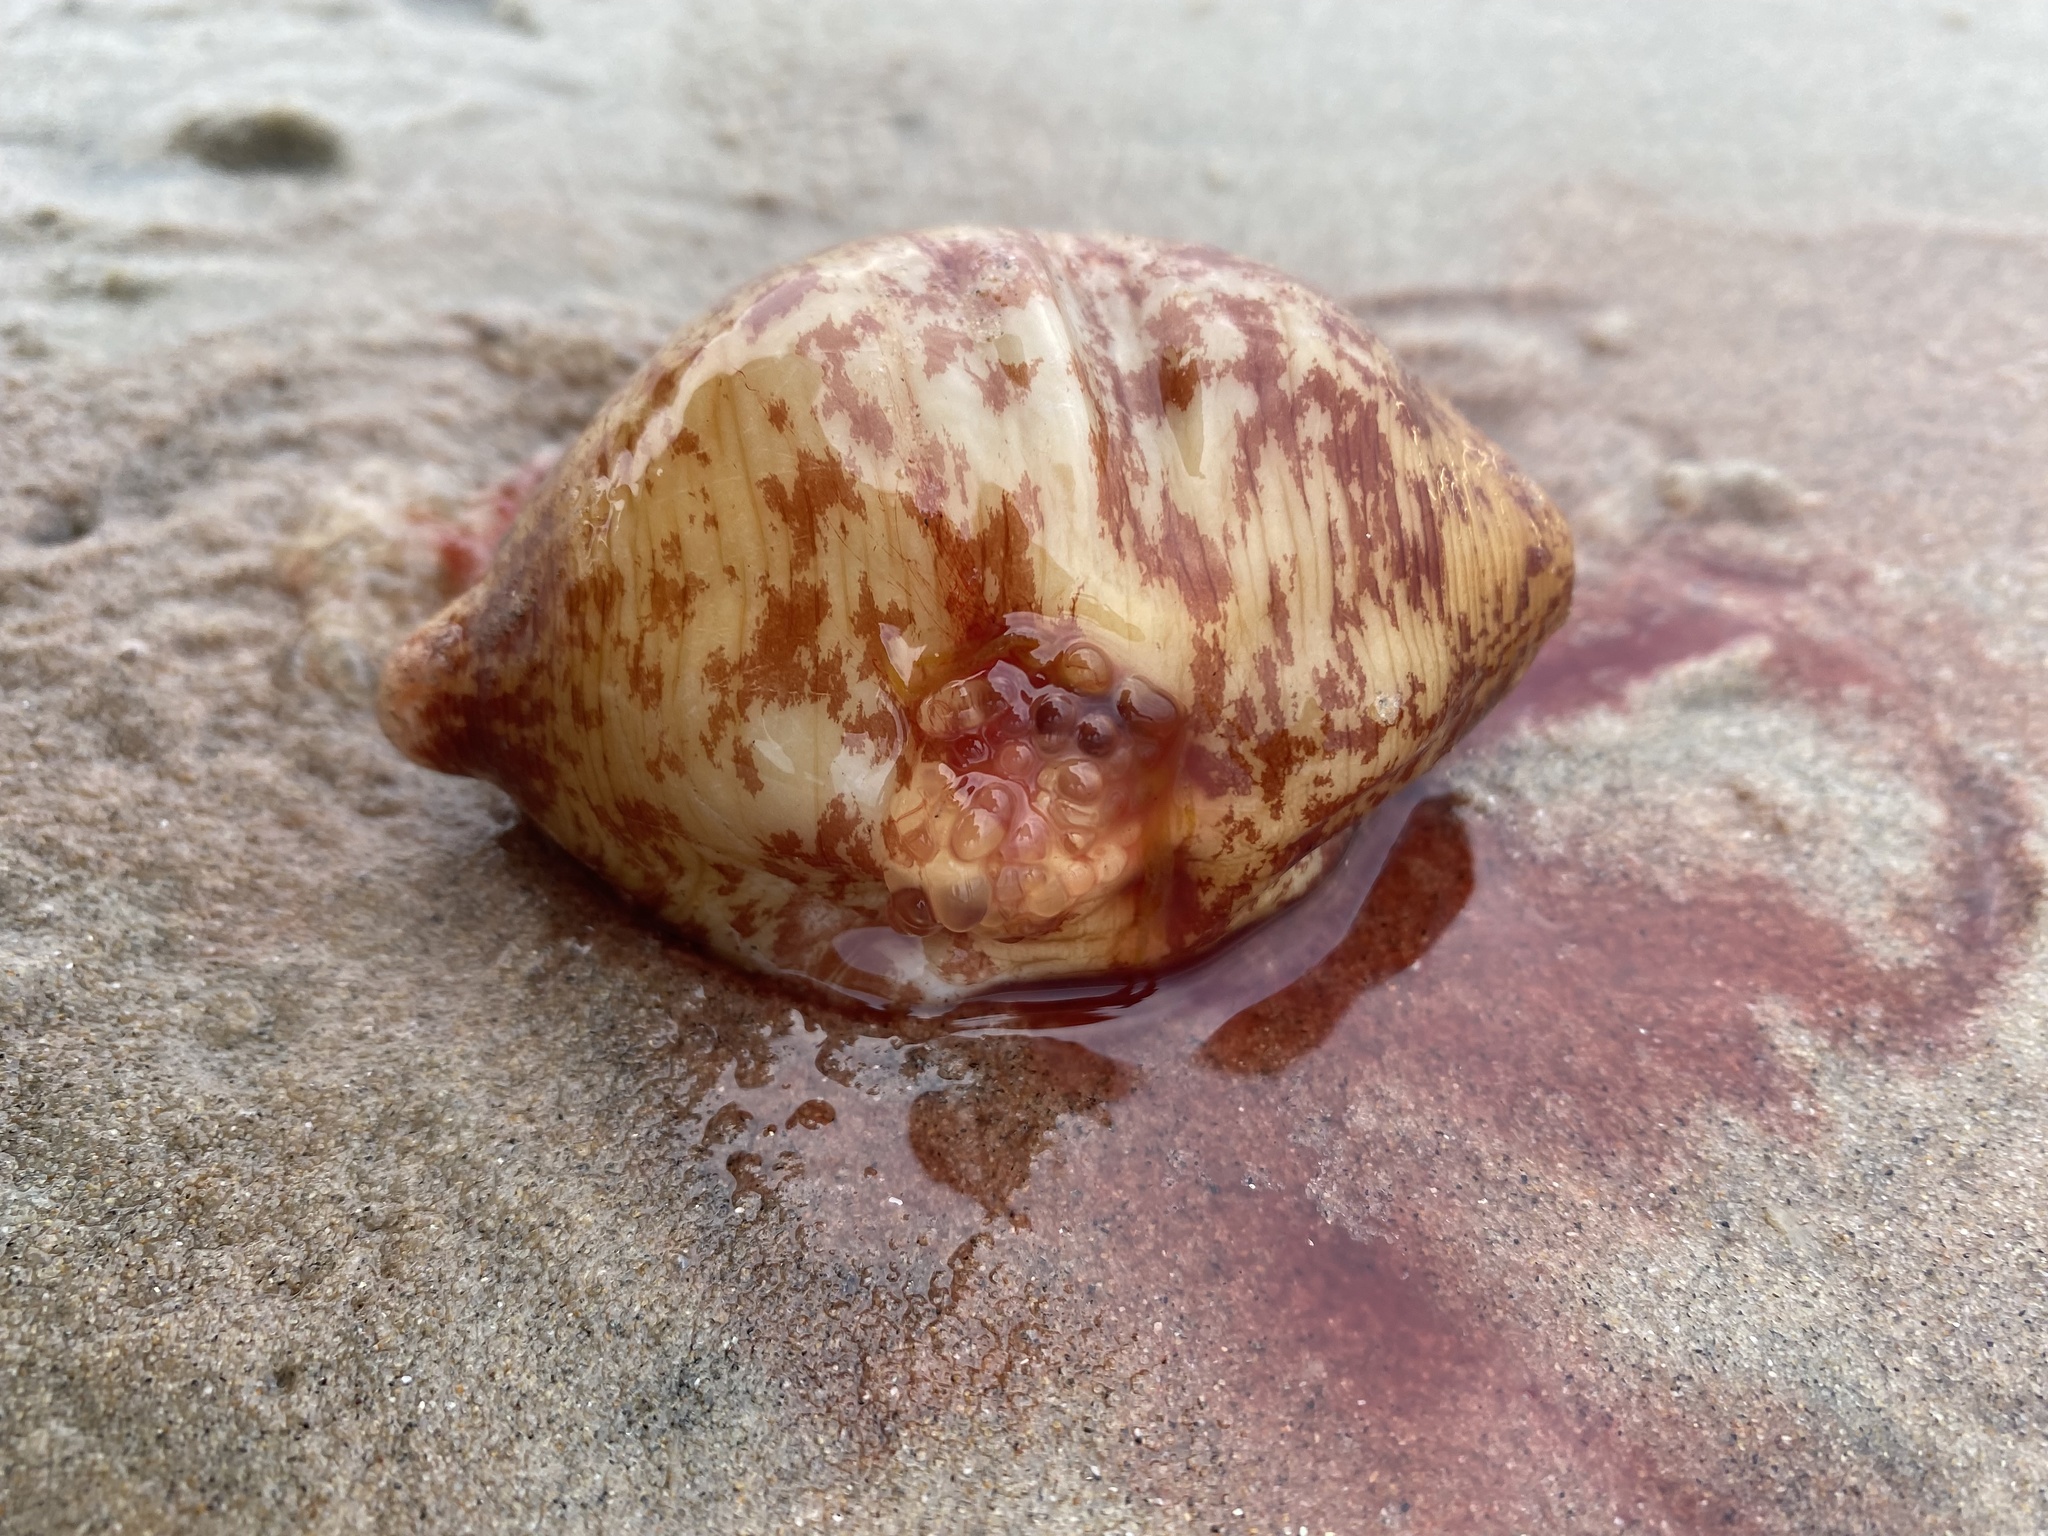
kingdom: Animalia
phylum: Echinodermata
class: Holothuroidea
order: Molpadida
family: Caudinidae
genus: Caudina
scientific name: Caudina arenicola
